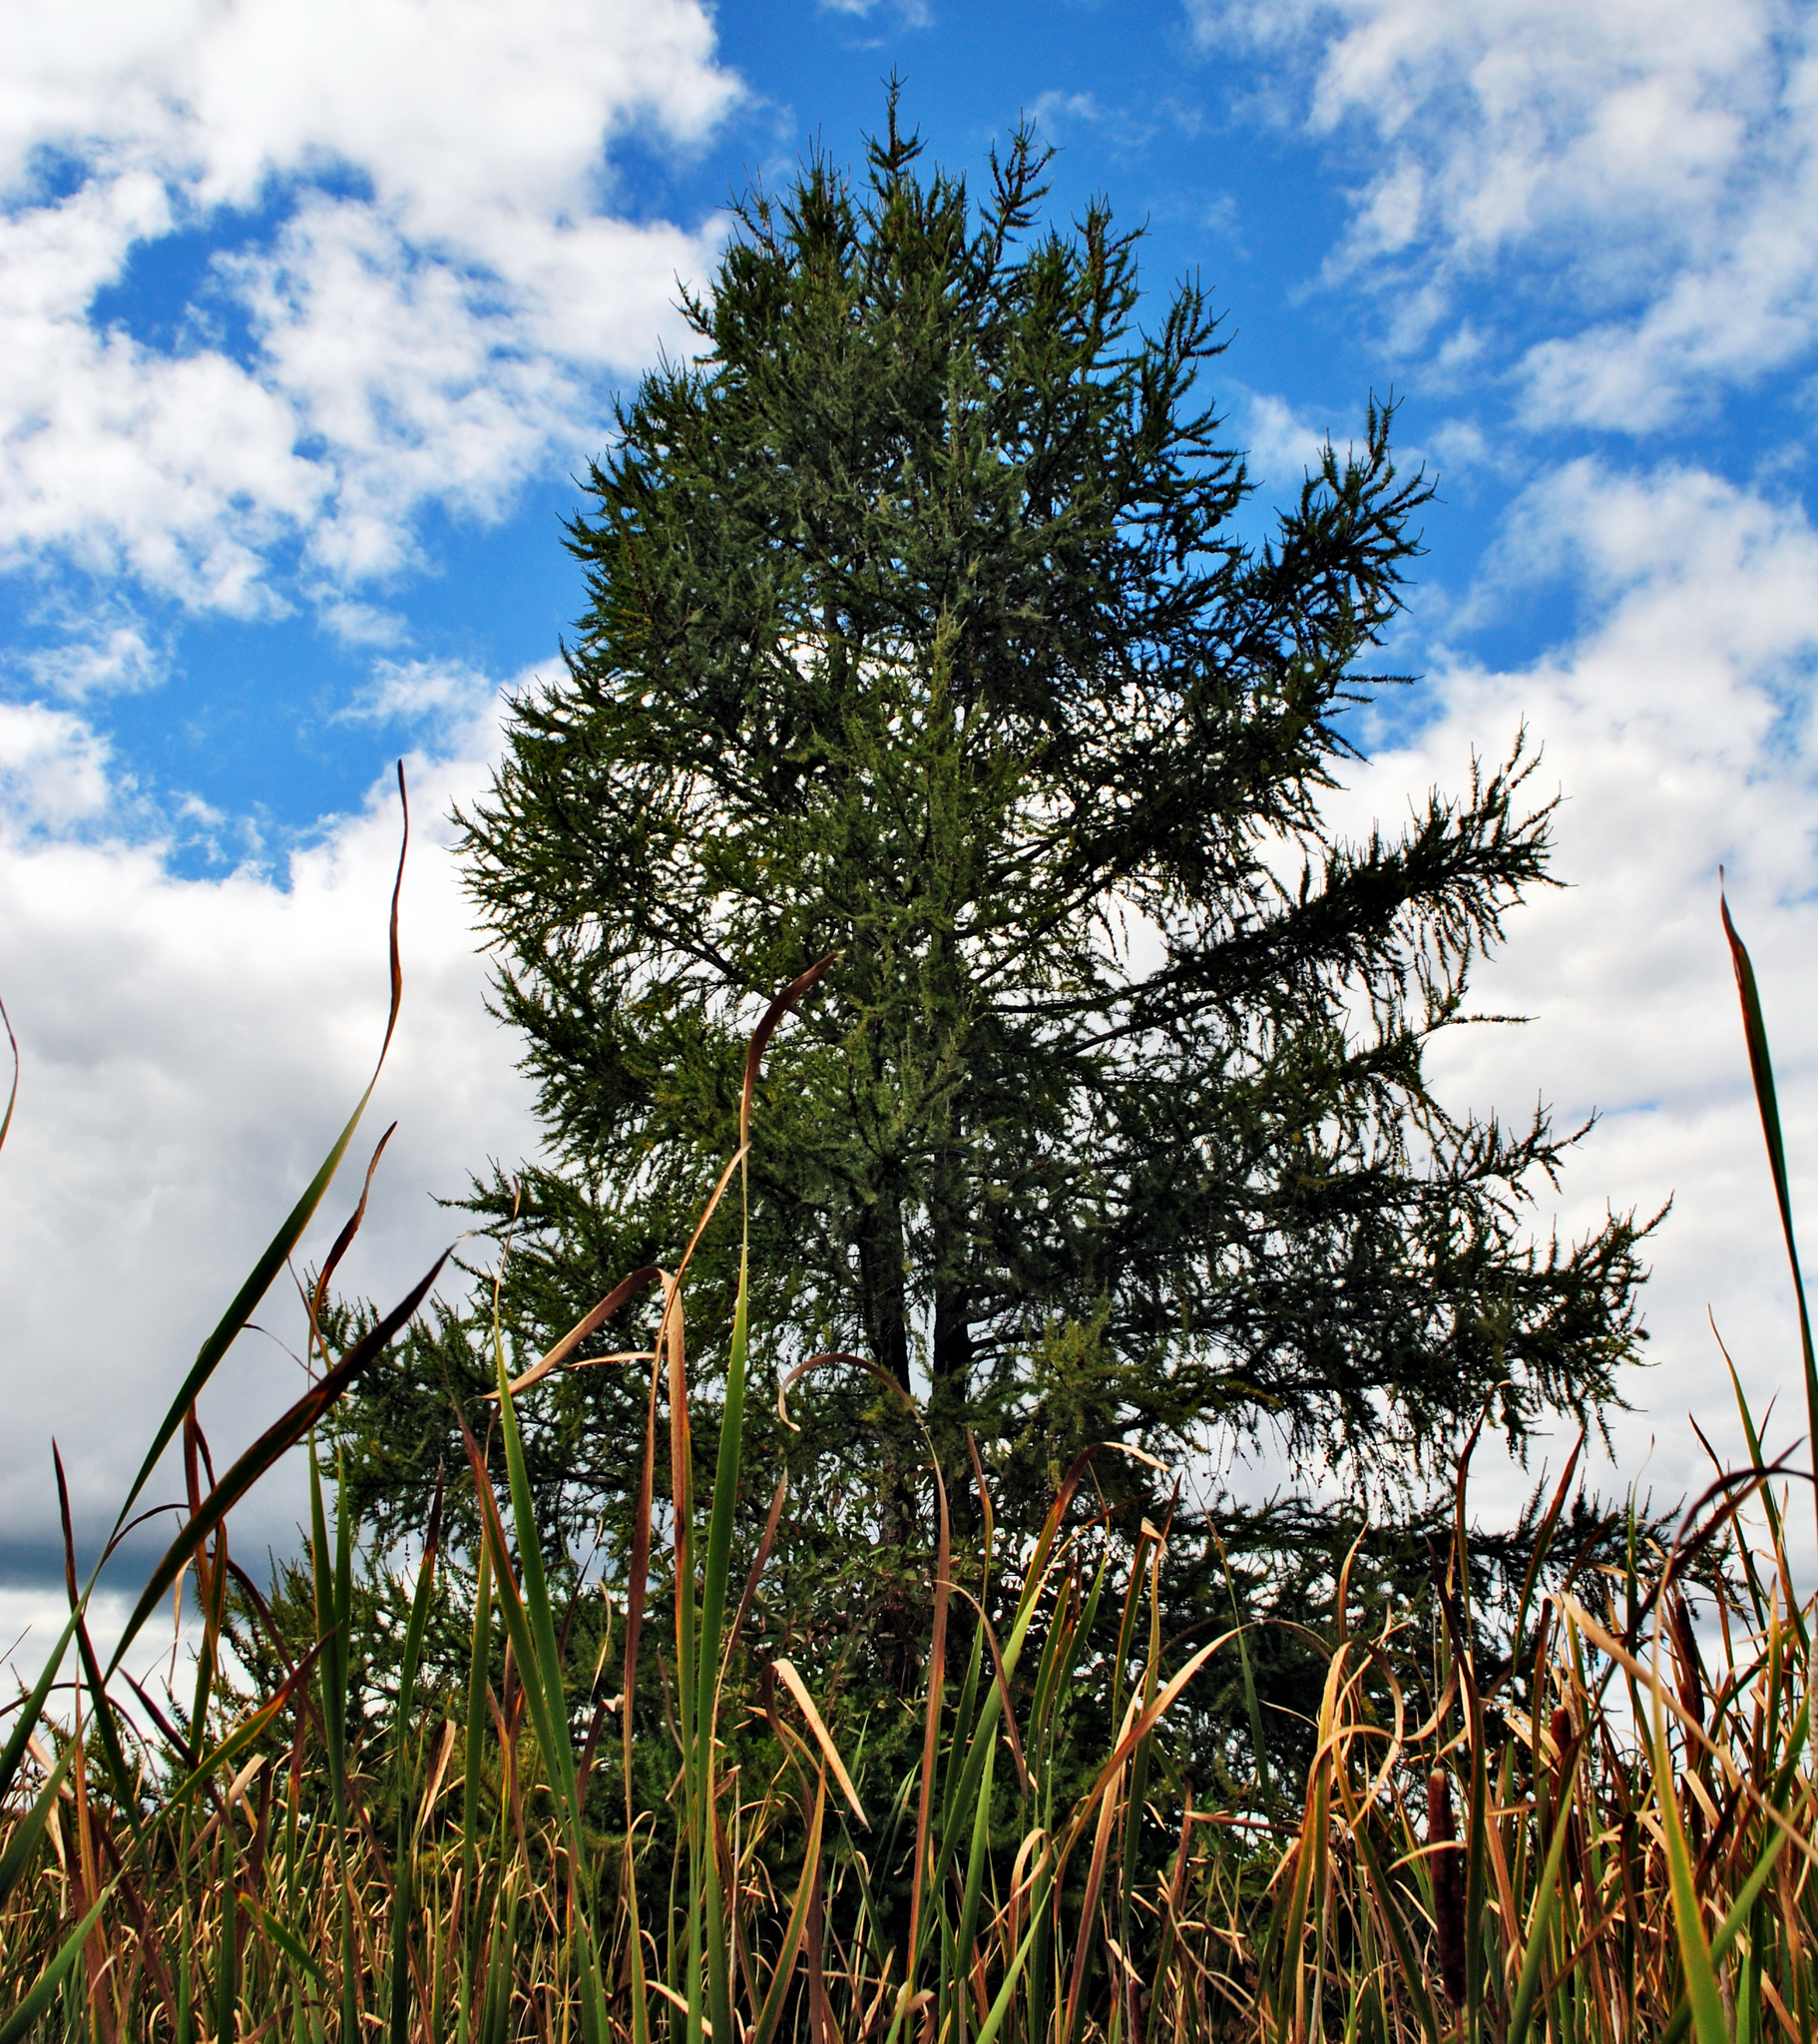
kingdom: Plantae
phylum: Tracheophyta
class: Pinopsida
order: Pinales
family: Pinaceae
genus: Larix
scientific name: Larix laricina
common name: American larch
